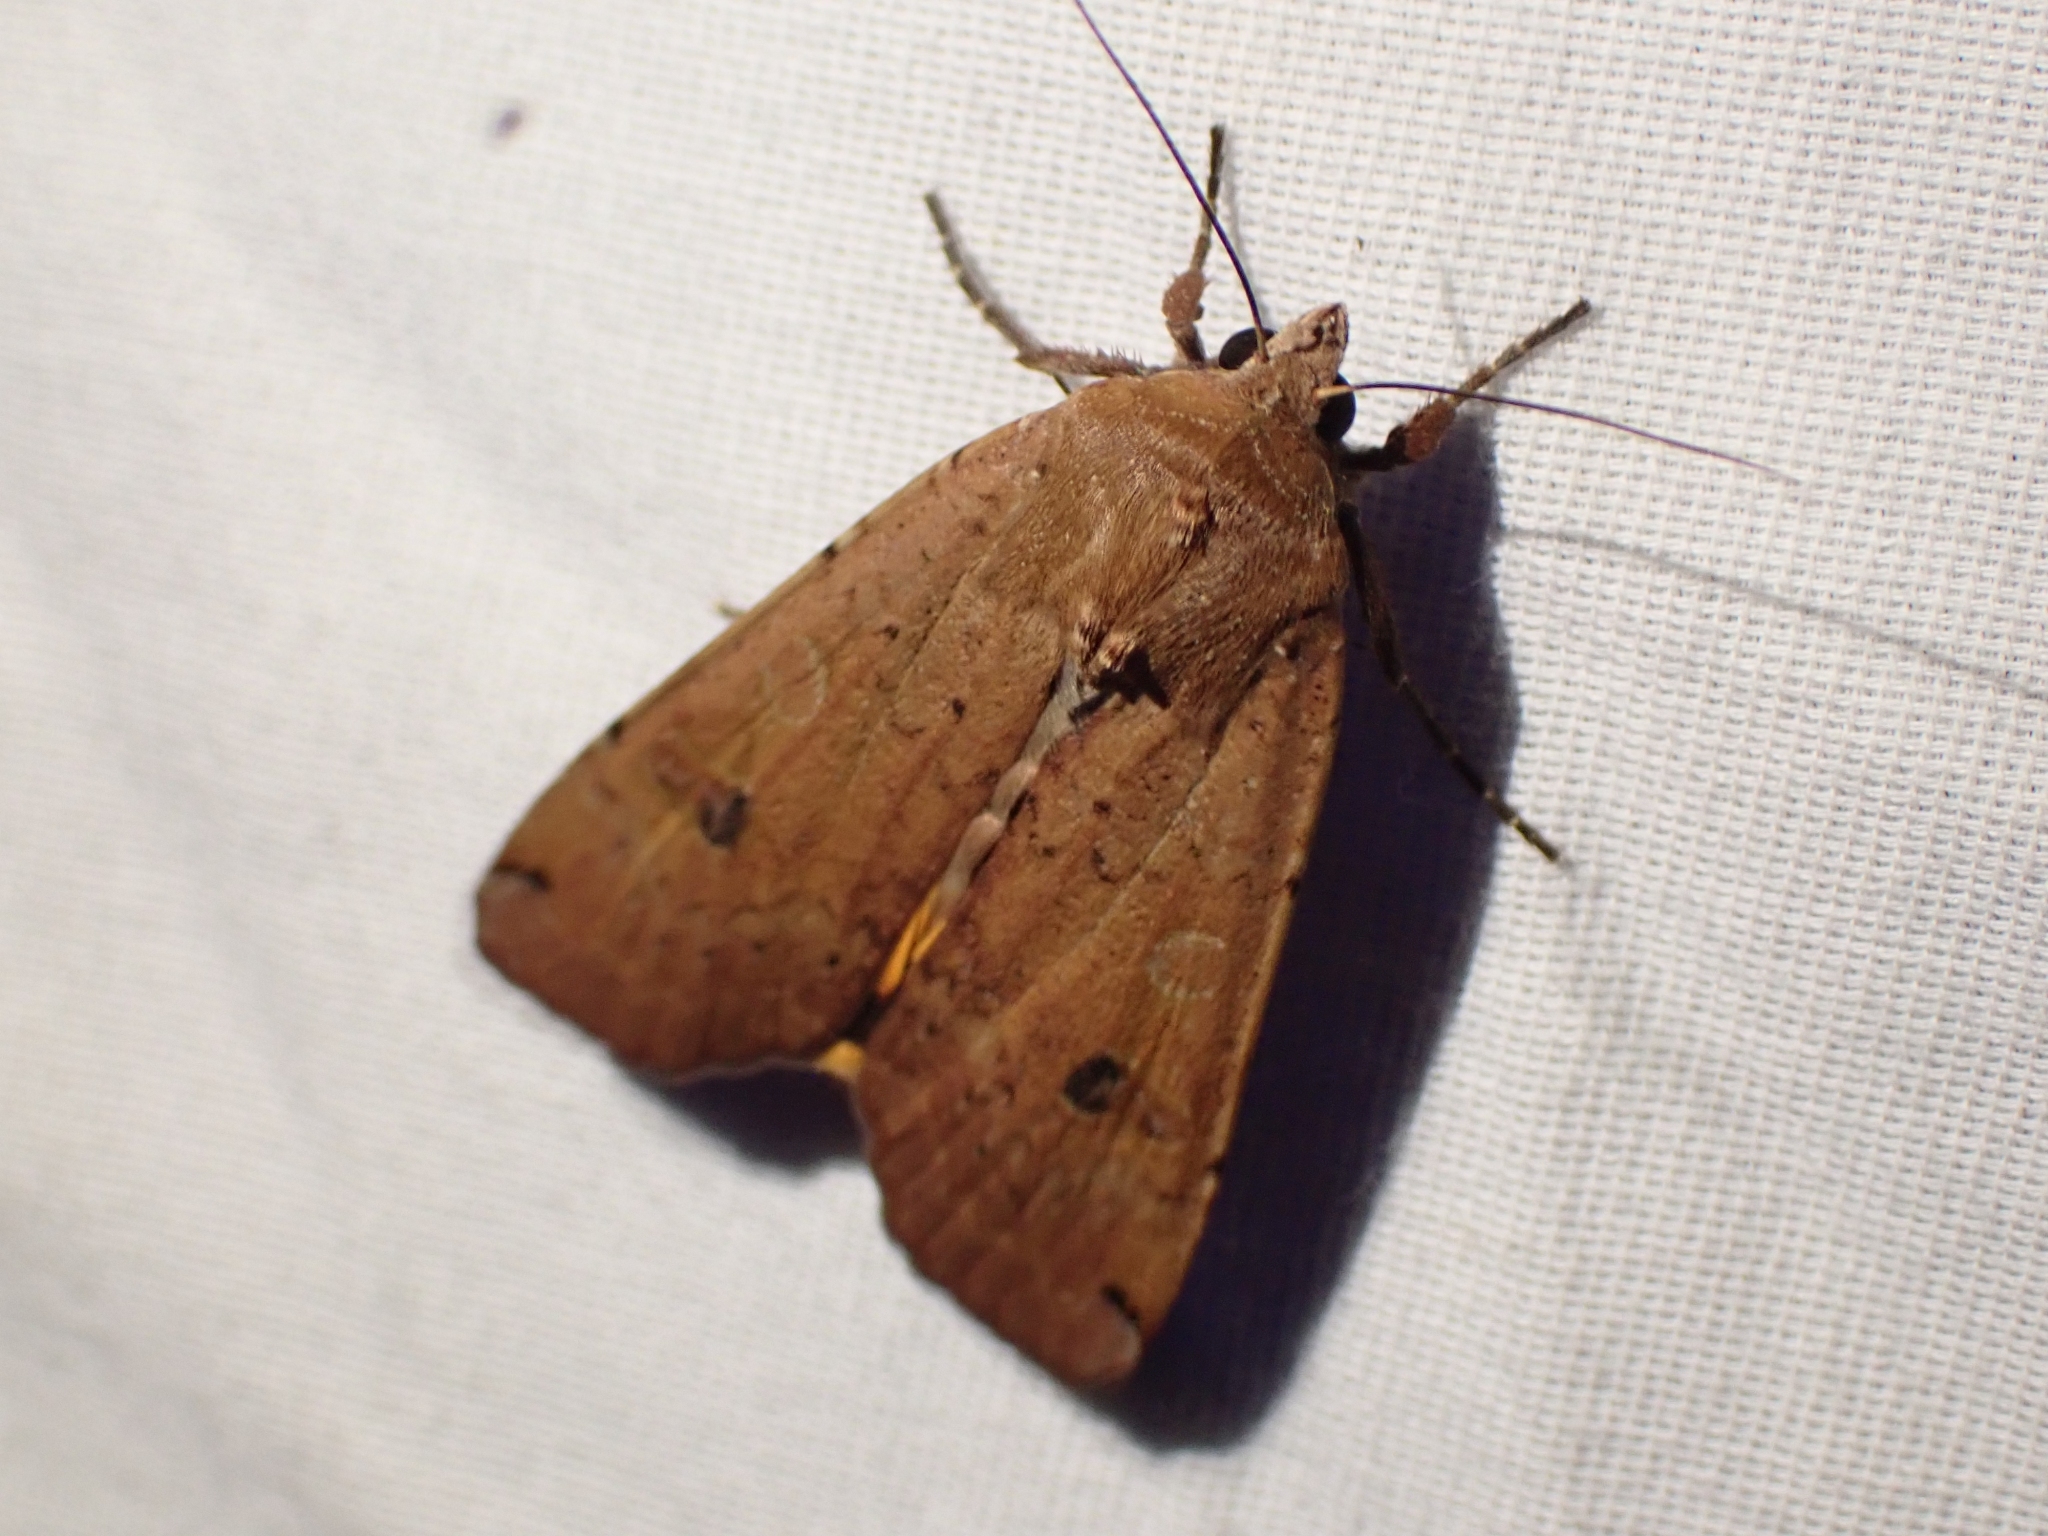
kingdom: Animalia
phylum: Arthropoda
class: Insecta
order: Lepidoptera
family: Noctuidae
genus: Noctua
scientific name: Noctua pronuba
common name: Large yellow underwing
